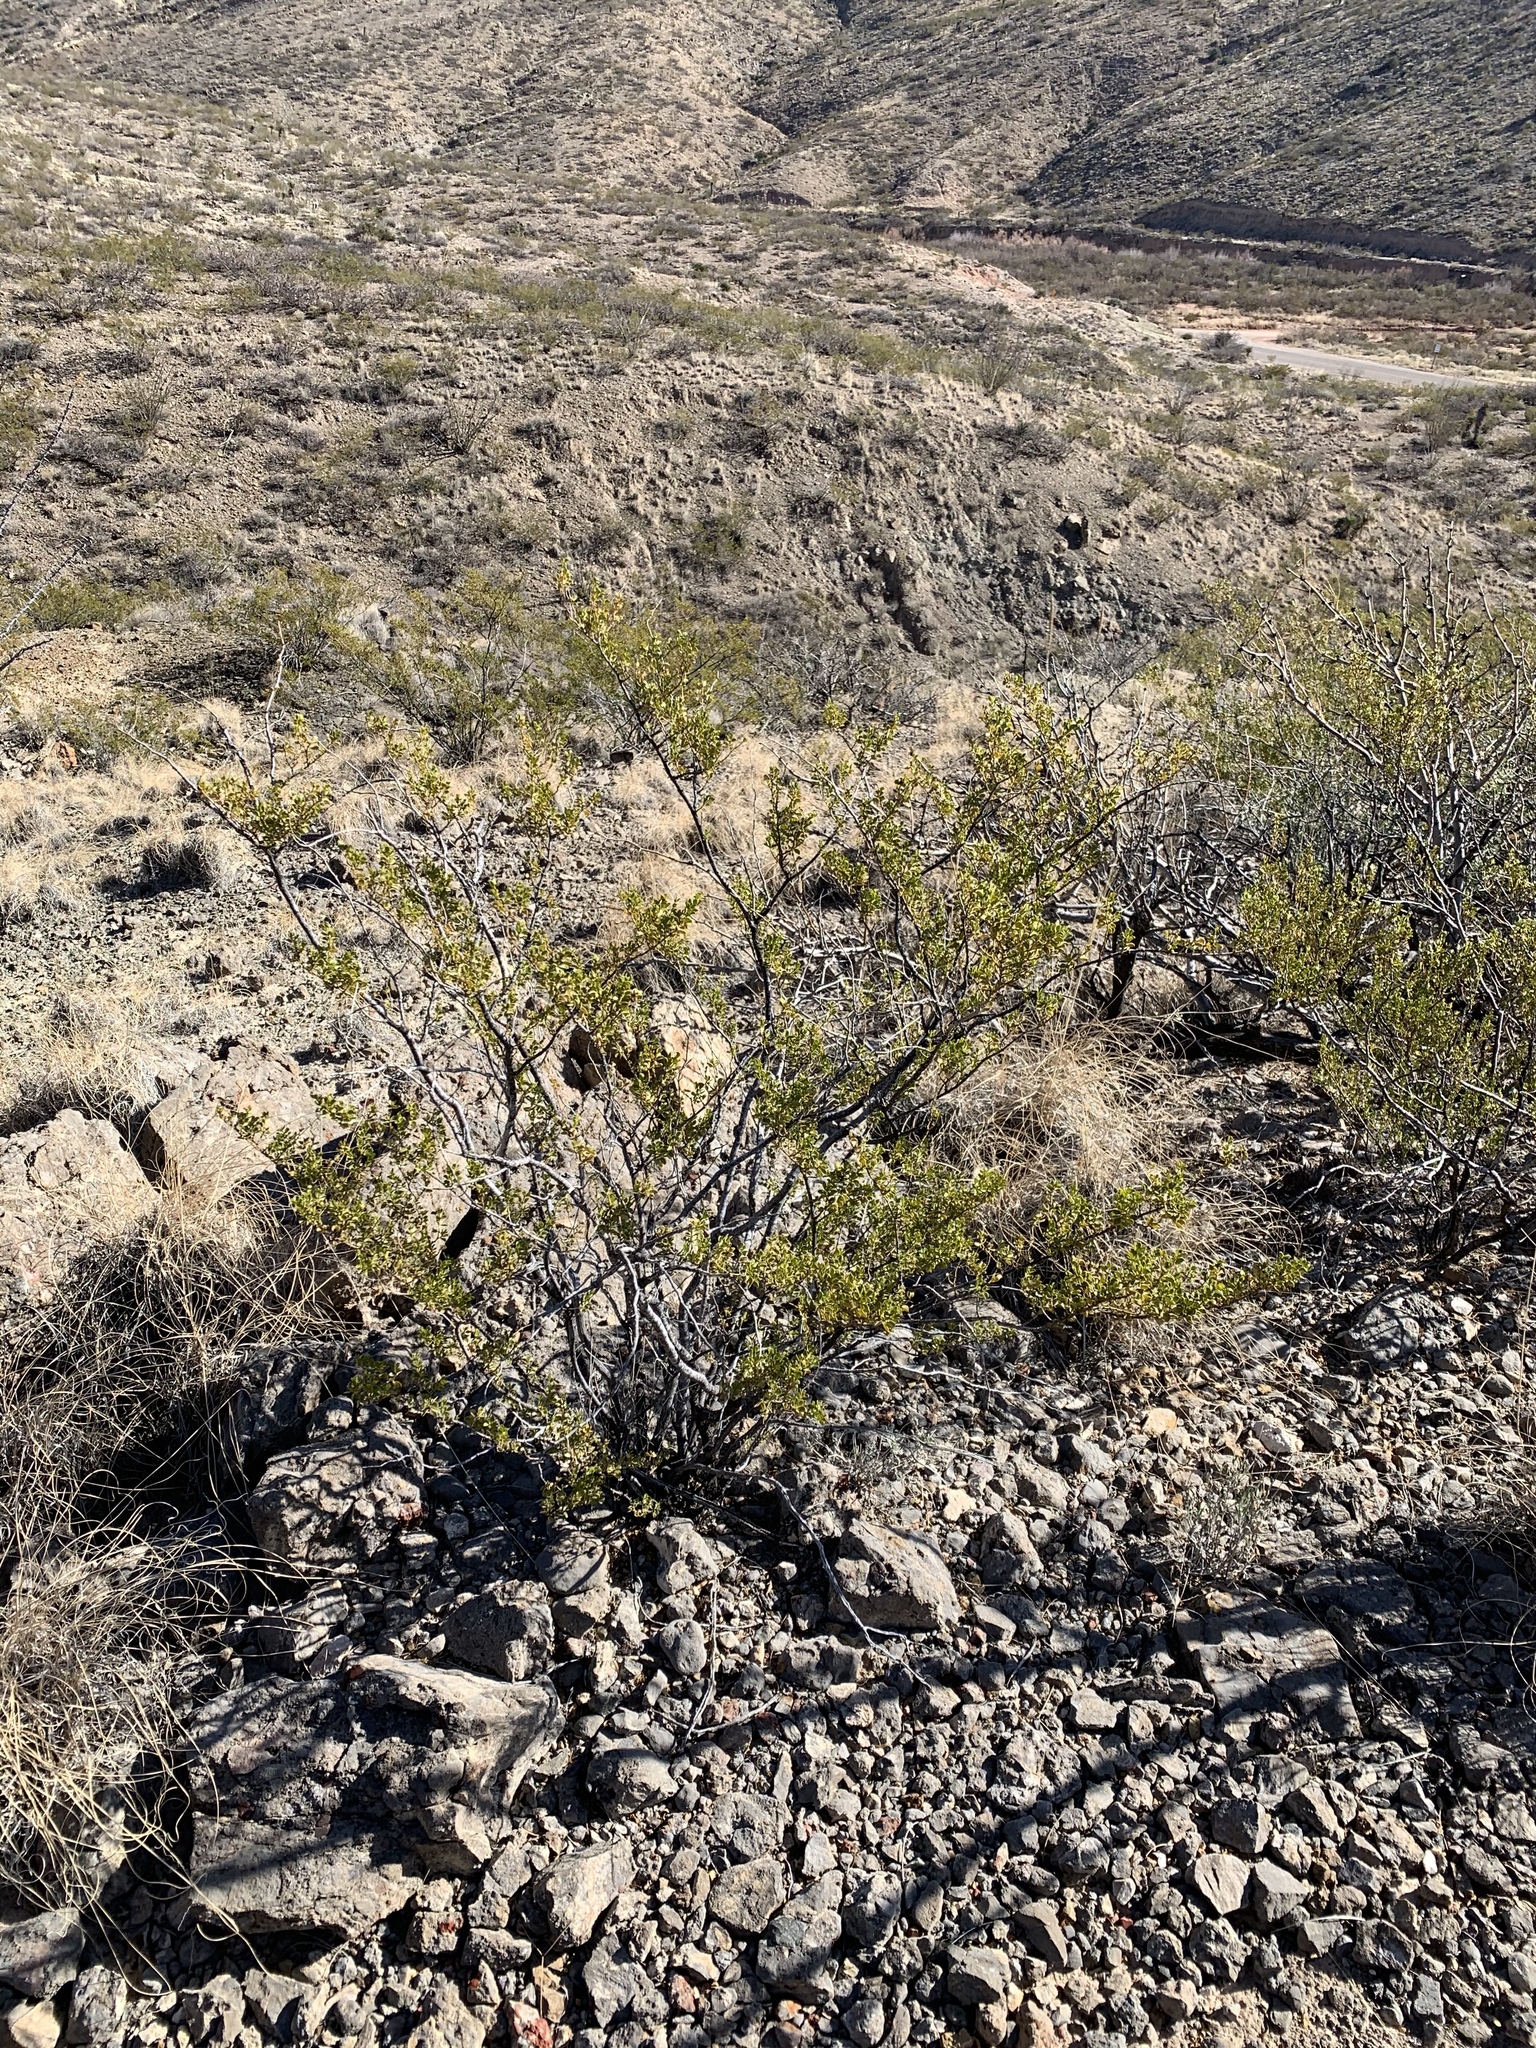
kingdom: Plantae
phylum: Tracheophyta
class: Magnoliopsida
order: Zygophyllales
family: Zygophyllaceae
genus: Larrea
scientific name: Larrea tridentata
